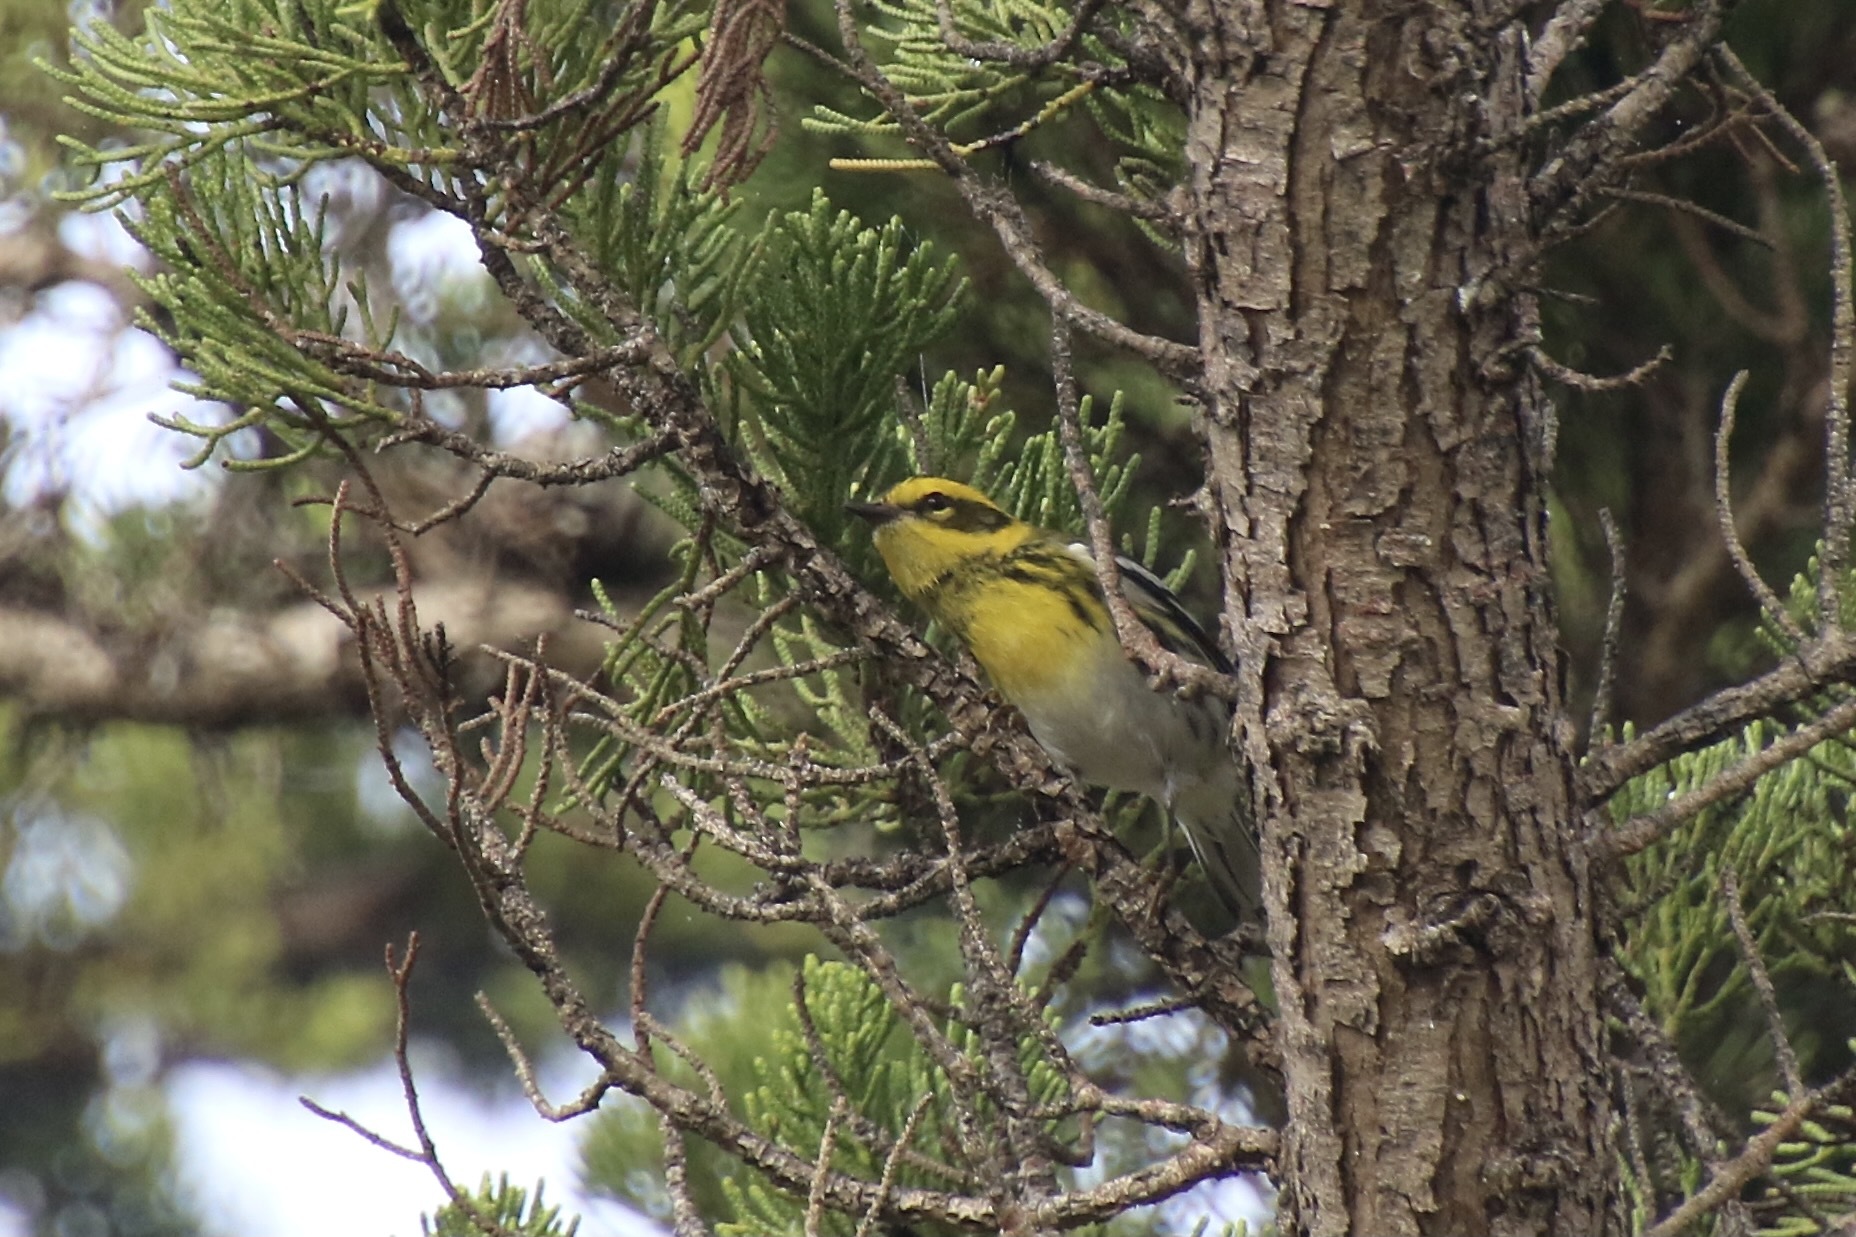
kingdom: Animalia
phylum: Chordata
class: Aves
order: Passeriformes
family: Parulidae
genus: Setophaga
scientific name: Setophaga townsendi
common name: Townsend's warbler
